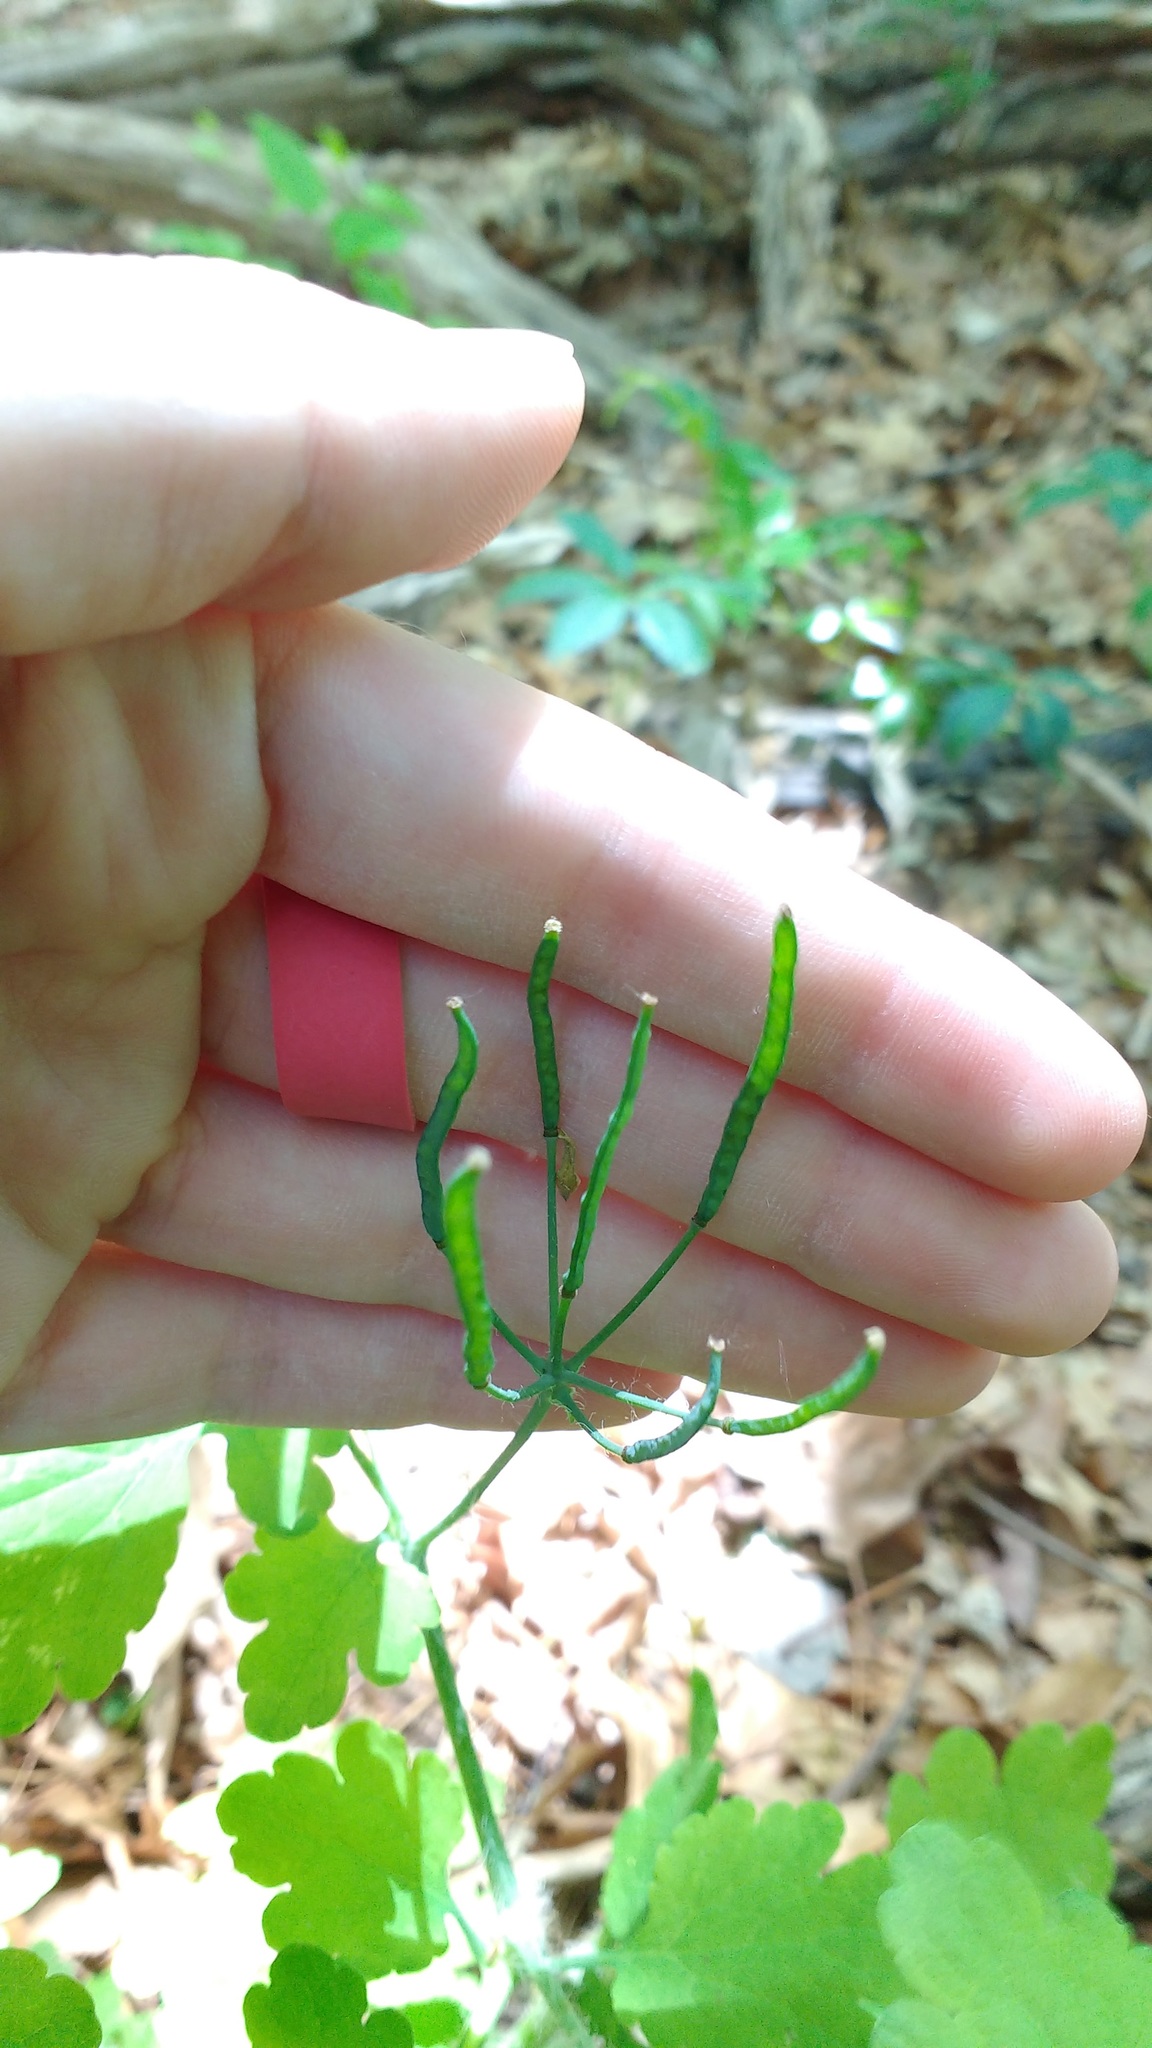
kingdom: Plantae
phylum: Tracheophyta
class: Magnoliopsida
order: Ranunculales
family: Papaveraceae
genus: Chelidonium
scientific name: Chelidonium majus
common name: Greater celandine
